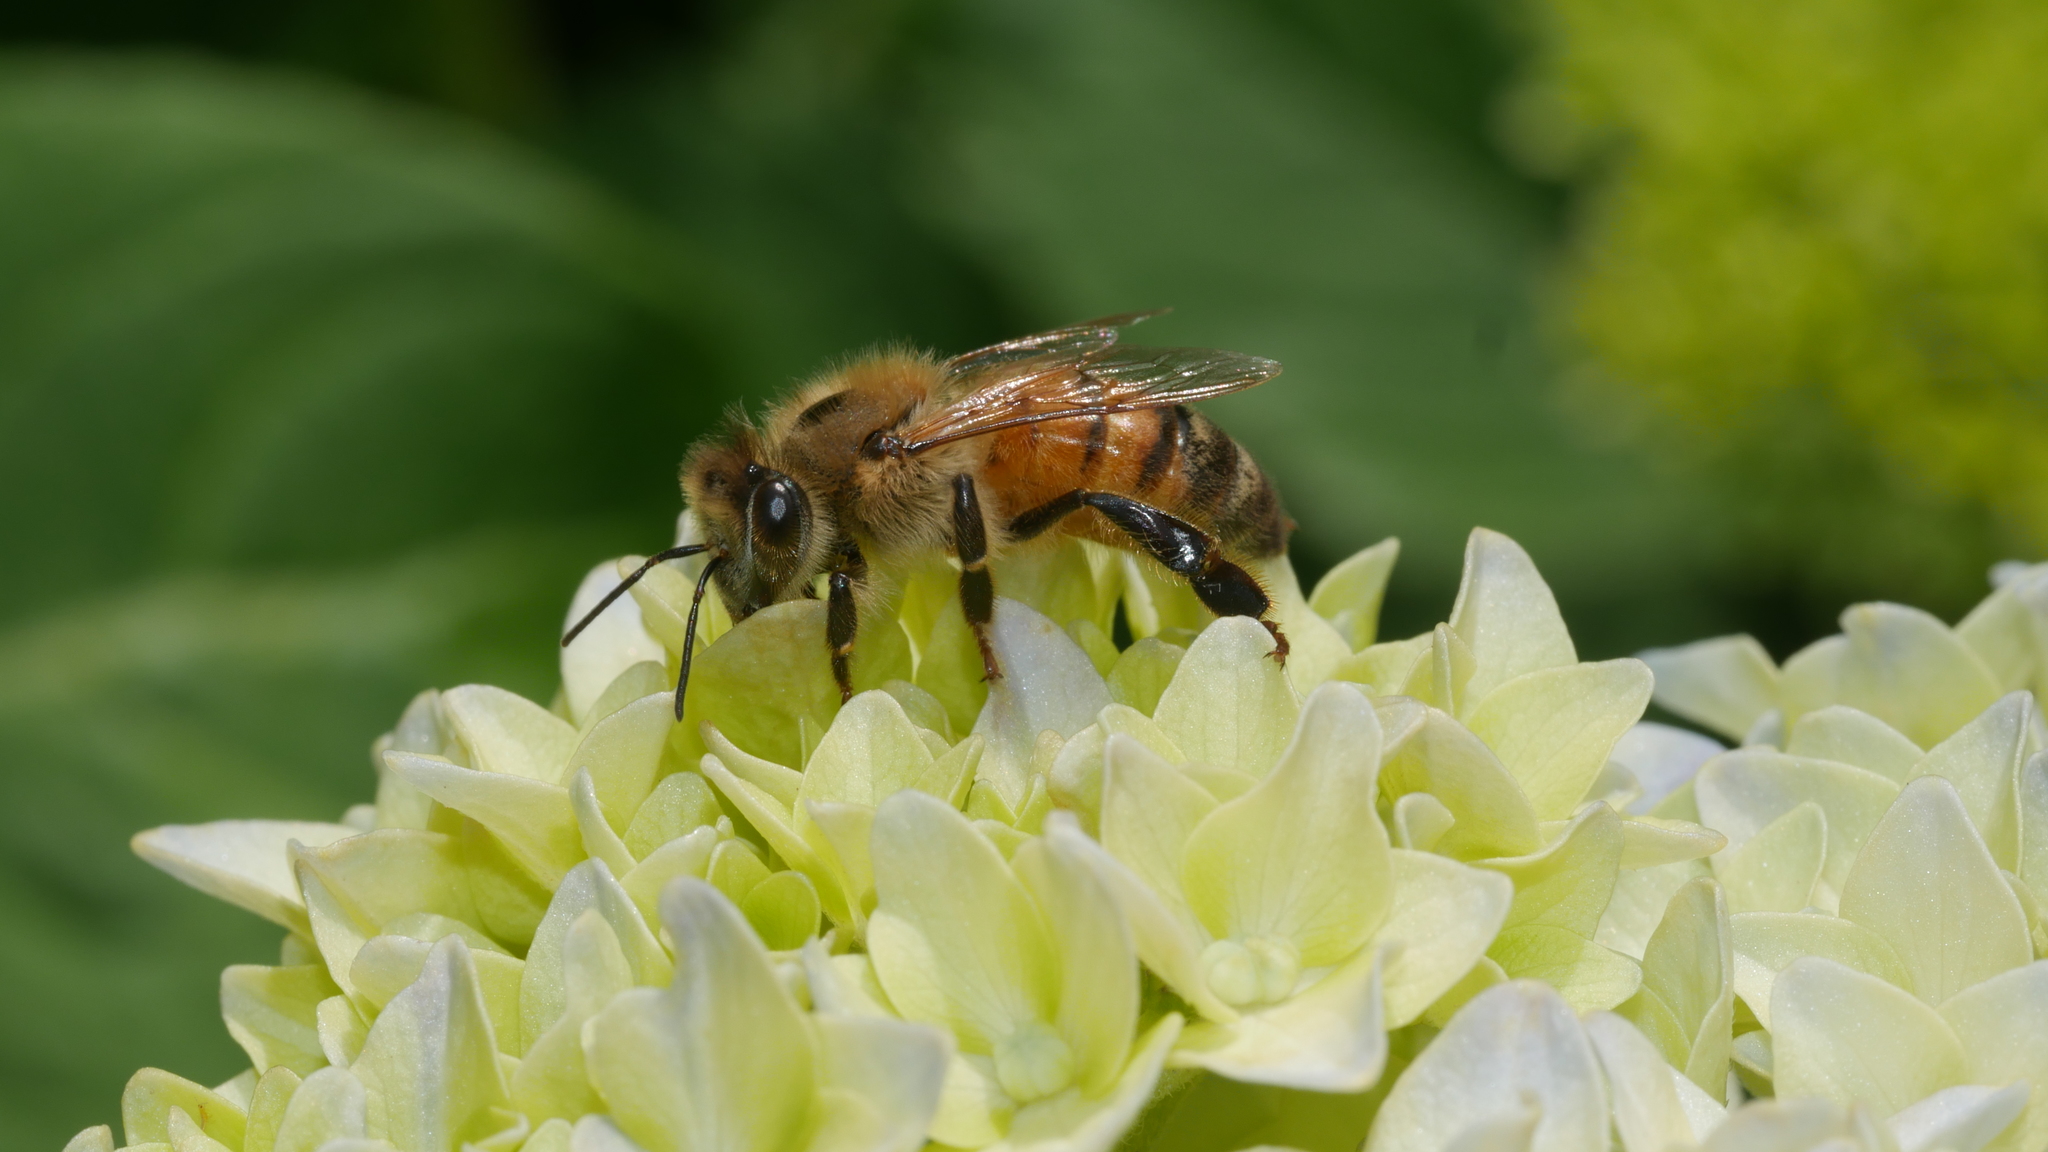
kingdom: Animalia
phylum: Arthropoda
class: Insecta
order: Hymenoptera
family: Apidae
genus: Apis
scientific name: Apis mellifera
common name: Honey bee
